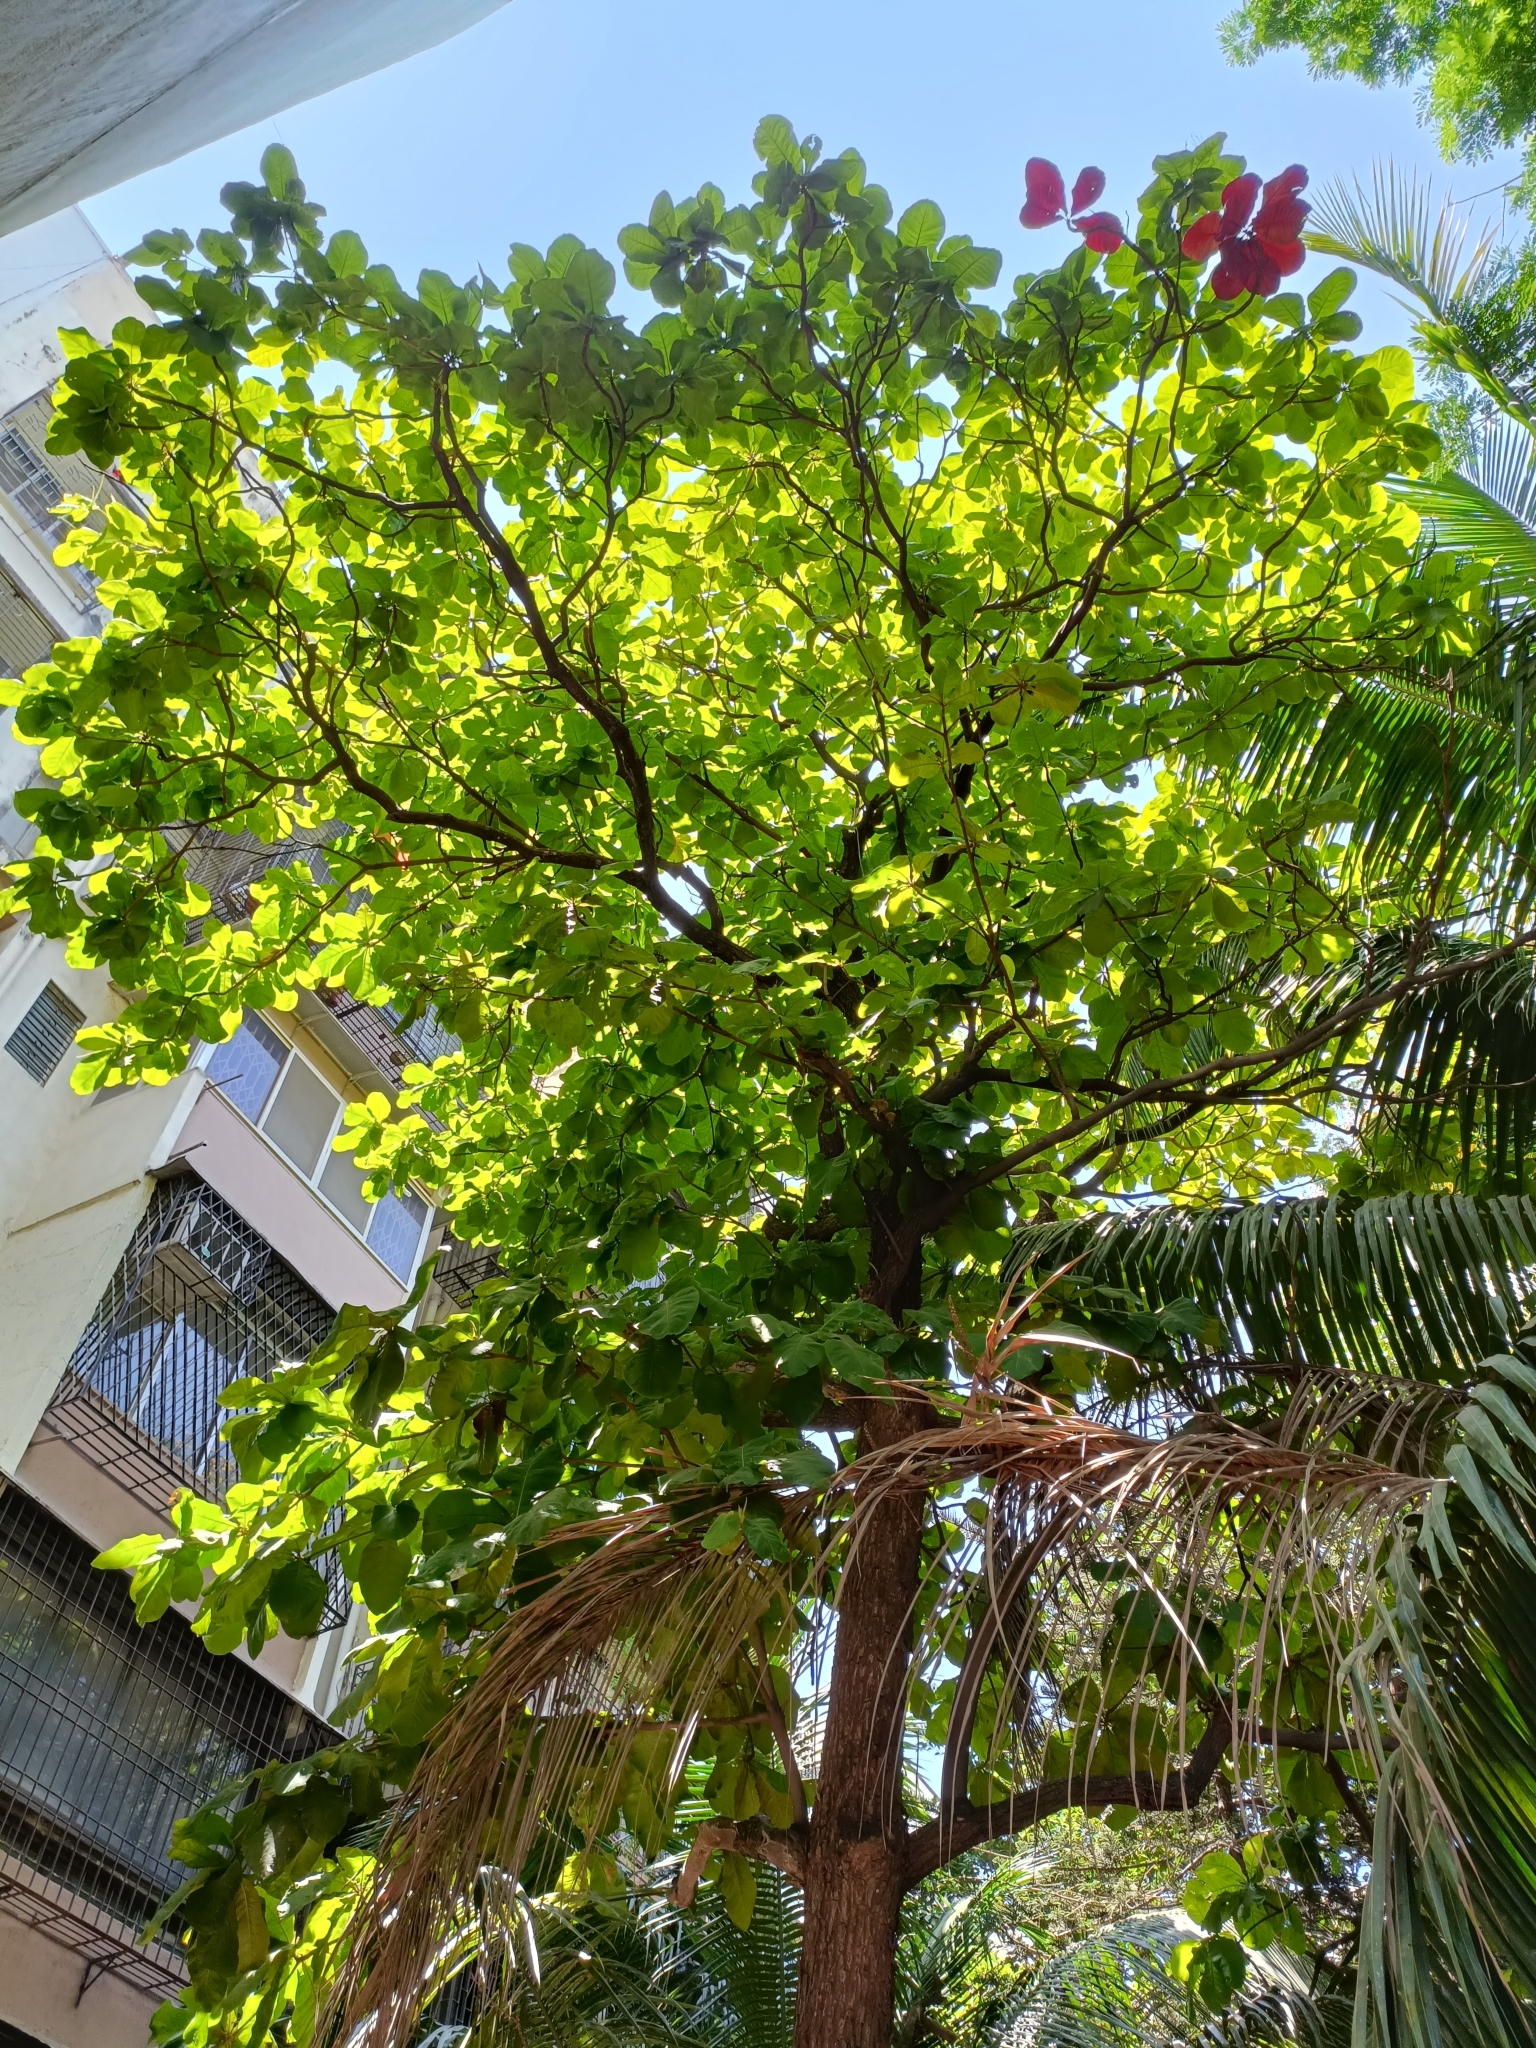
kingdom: Plantae
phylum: Tracheophyta
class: Magnoliopsida
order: Myrtales
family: Combretaceae
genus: Terminalia
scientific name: Terminalia catappa
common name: Tropical almond
